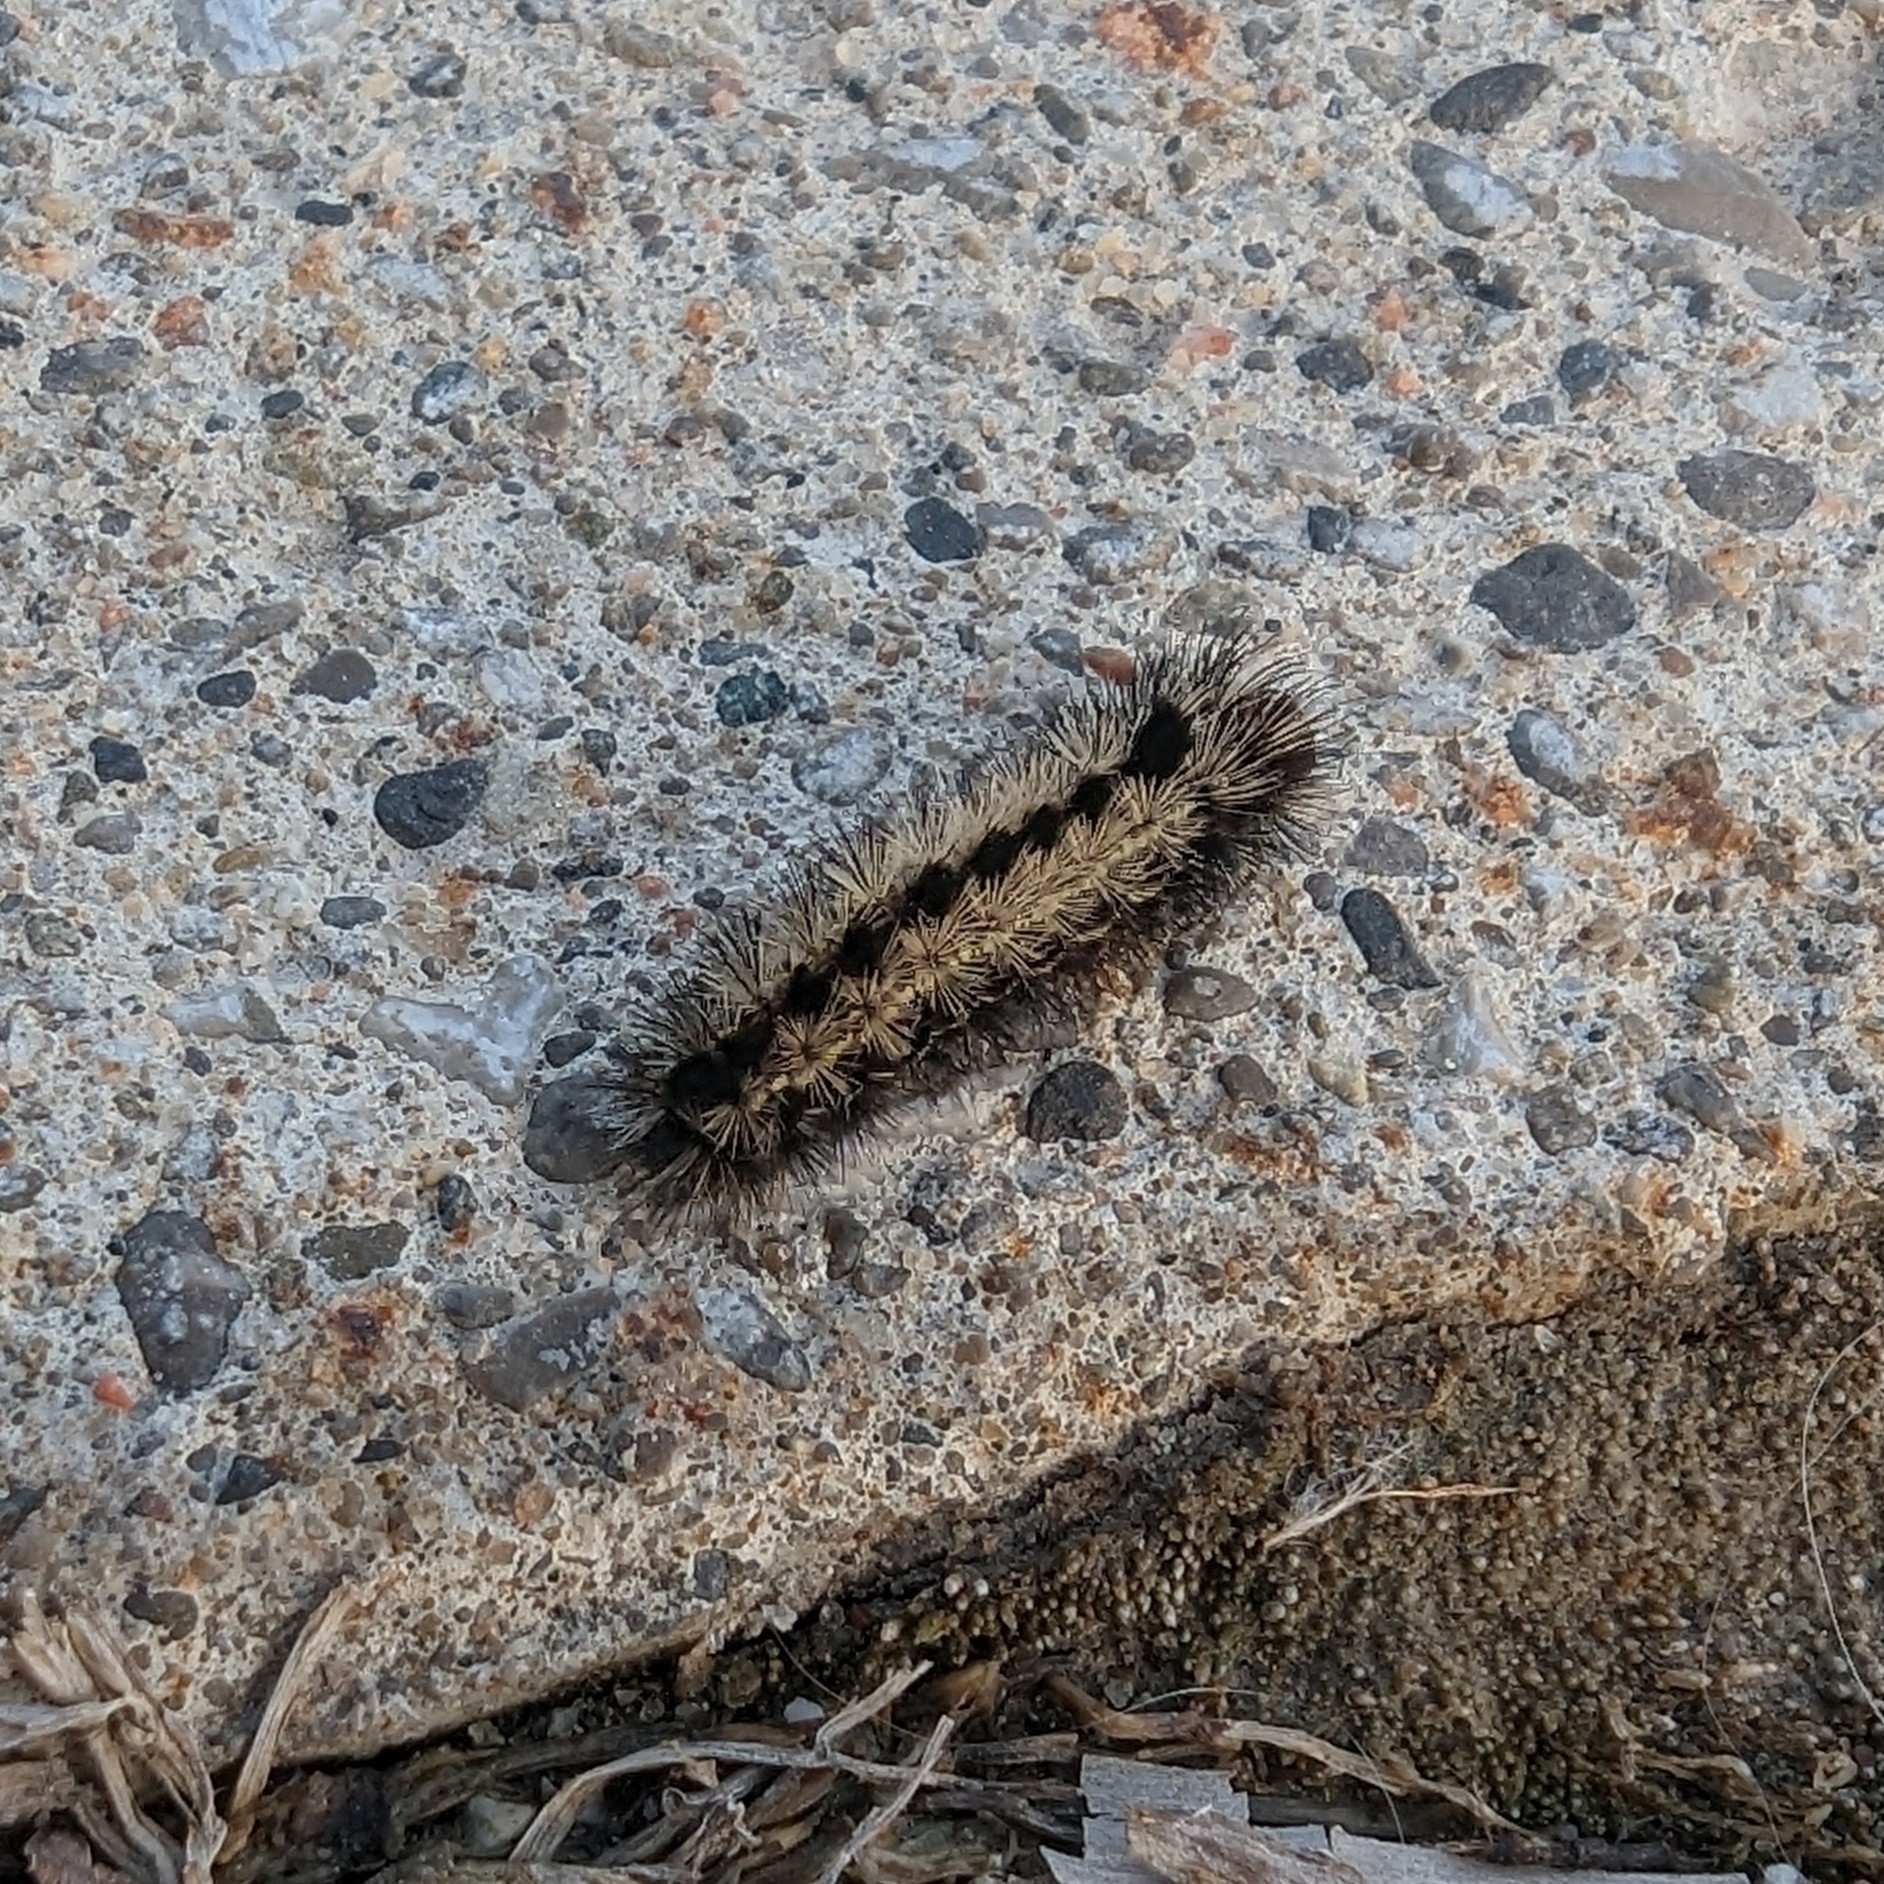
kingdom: Animalia
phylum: Arthropoda
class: Insecta
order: Lepidoptera
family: Erebidae
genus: Ctenucha
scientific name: Ctenucha virginica
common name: Virginia ctenucha moth
